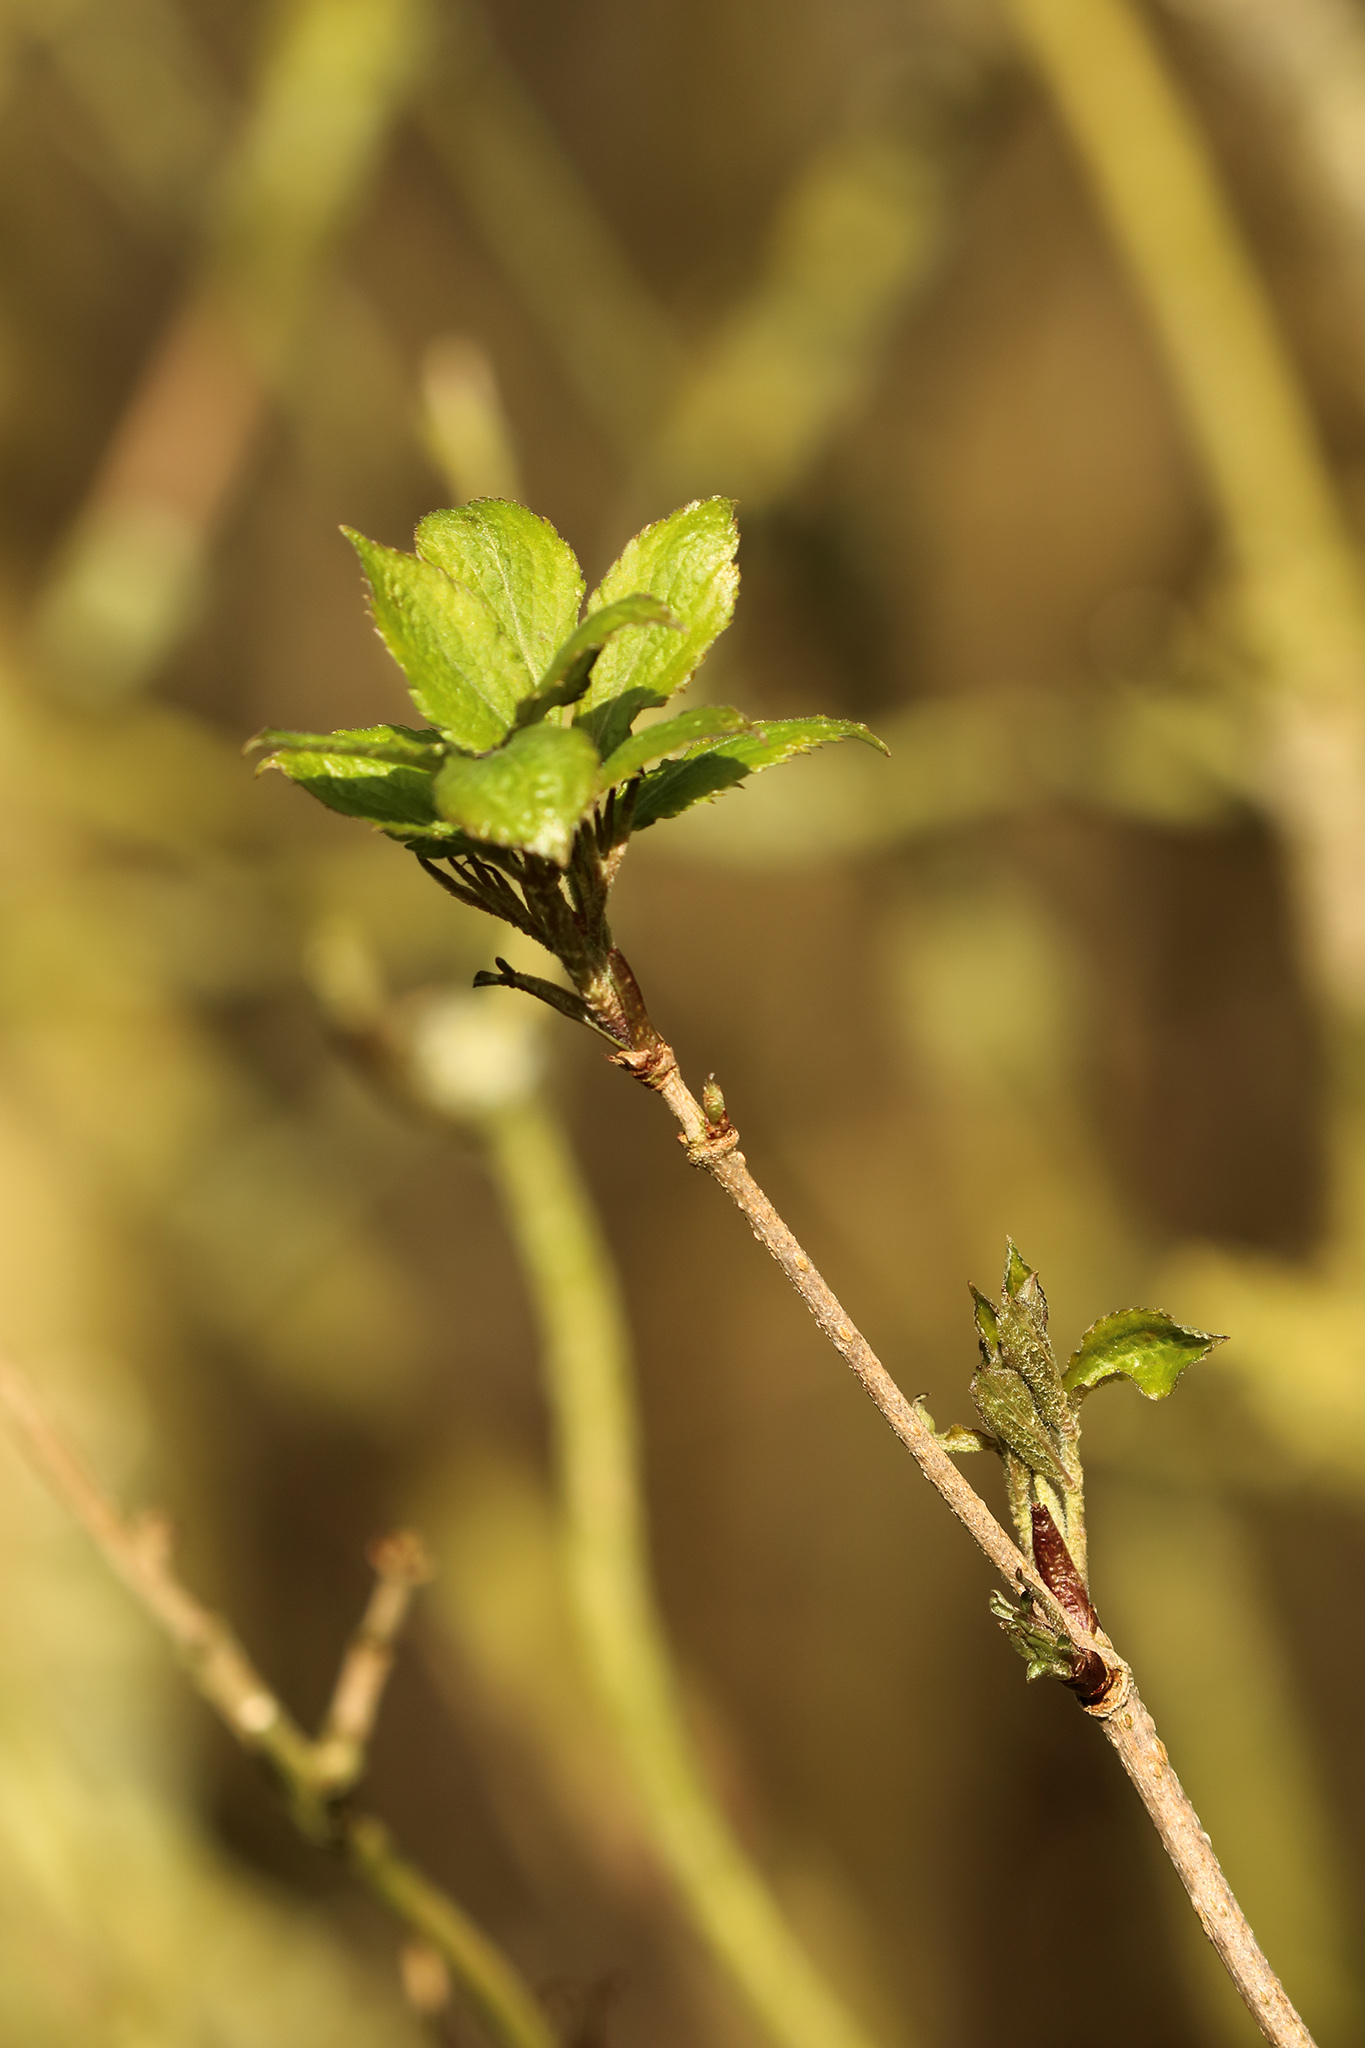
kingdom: Plantae
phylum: Tracheophyta
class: Magnoliopsida
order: Dipsacales
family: Viburnaceae
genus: Sambucus
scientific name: Sambucus nigra
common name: Elder
